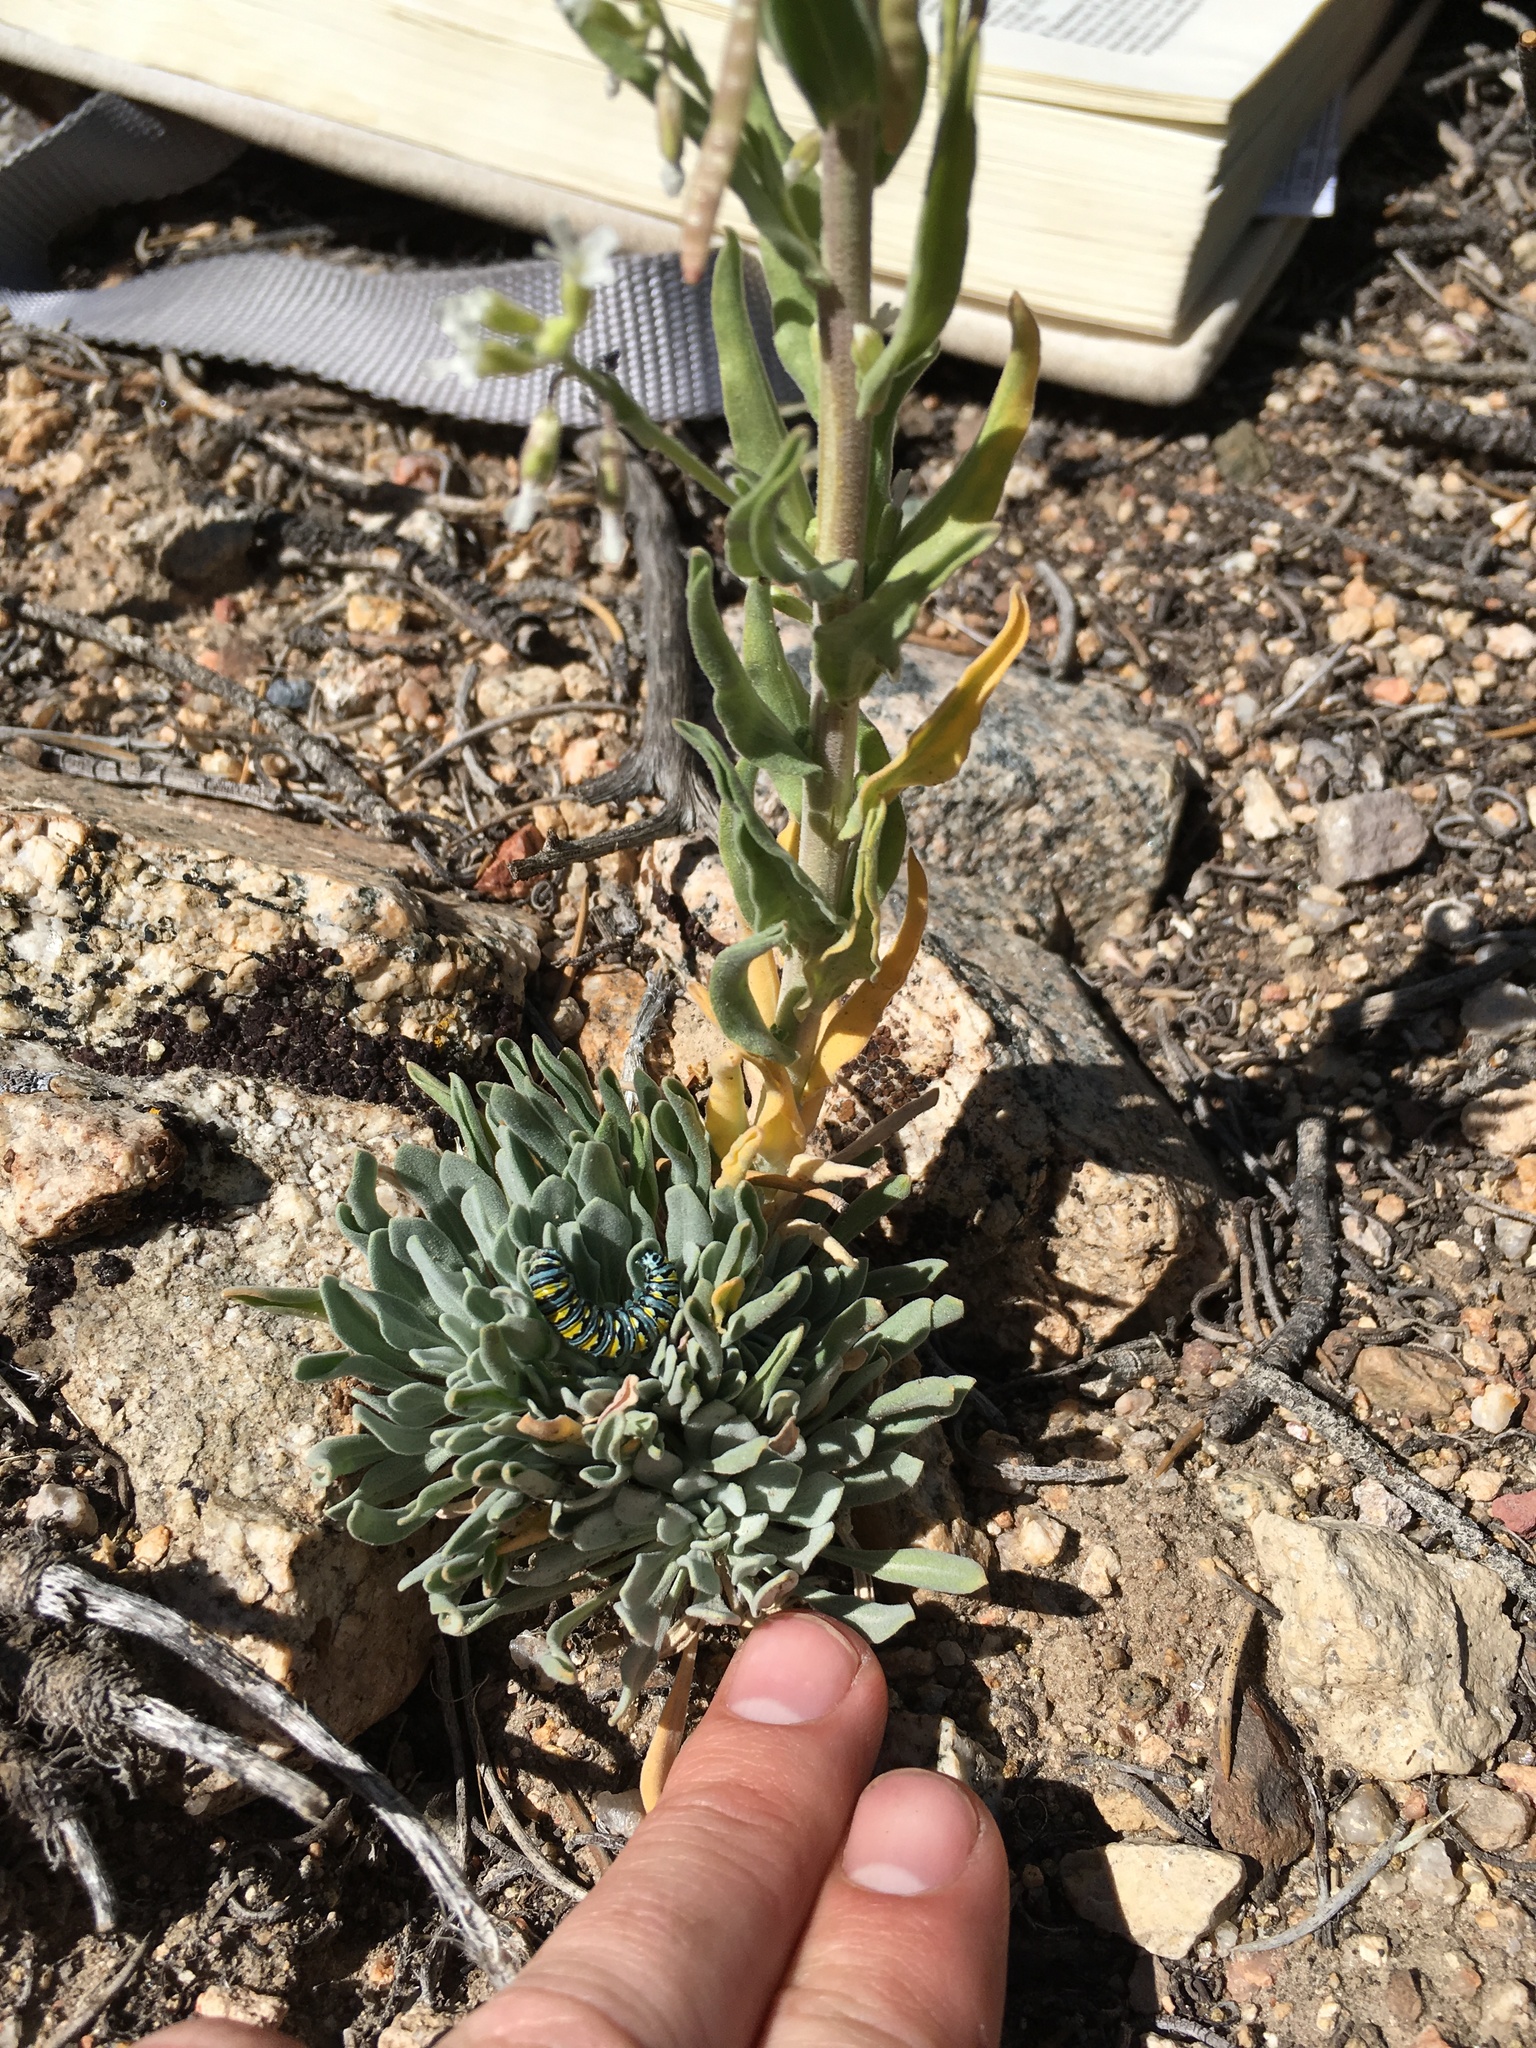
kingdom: Plantae
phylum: Tracheophyta
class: Magnoliopsida
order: Brassicales
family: Brassicaceae
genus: Boechera
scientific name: Boechera puberula
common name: Puberulent rockcress
